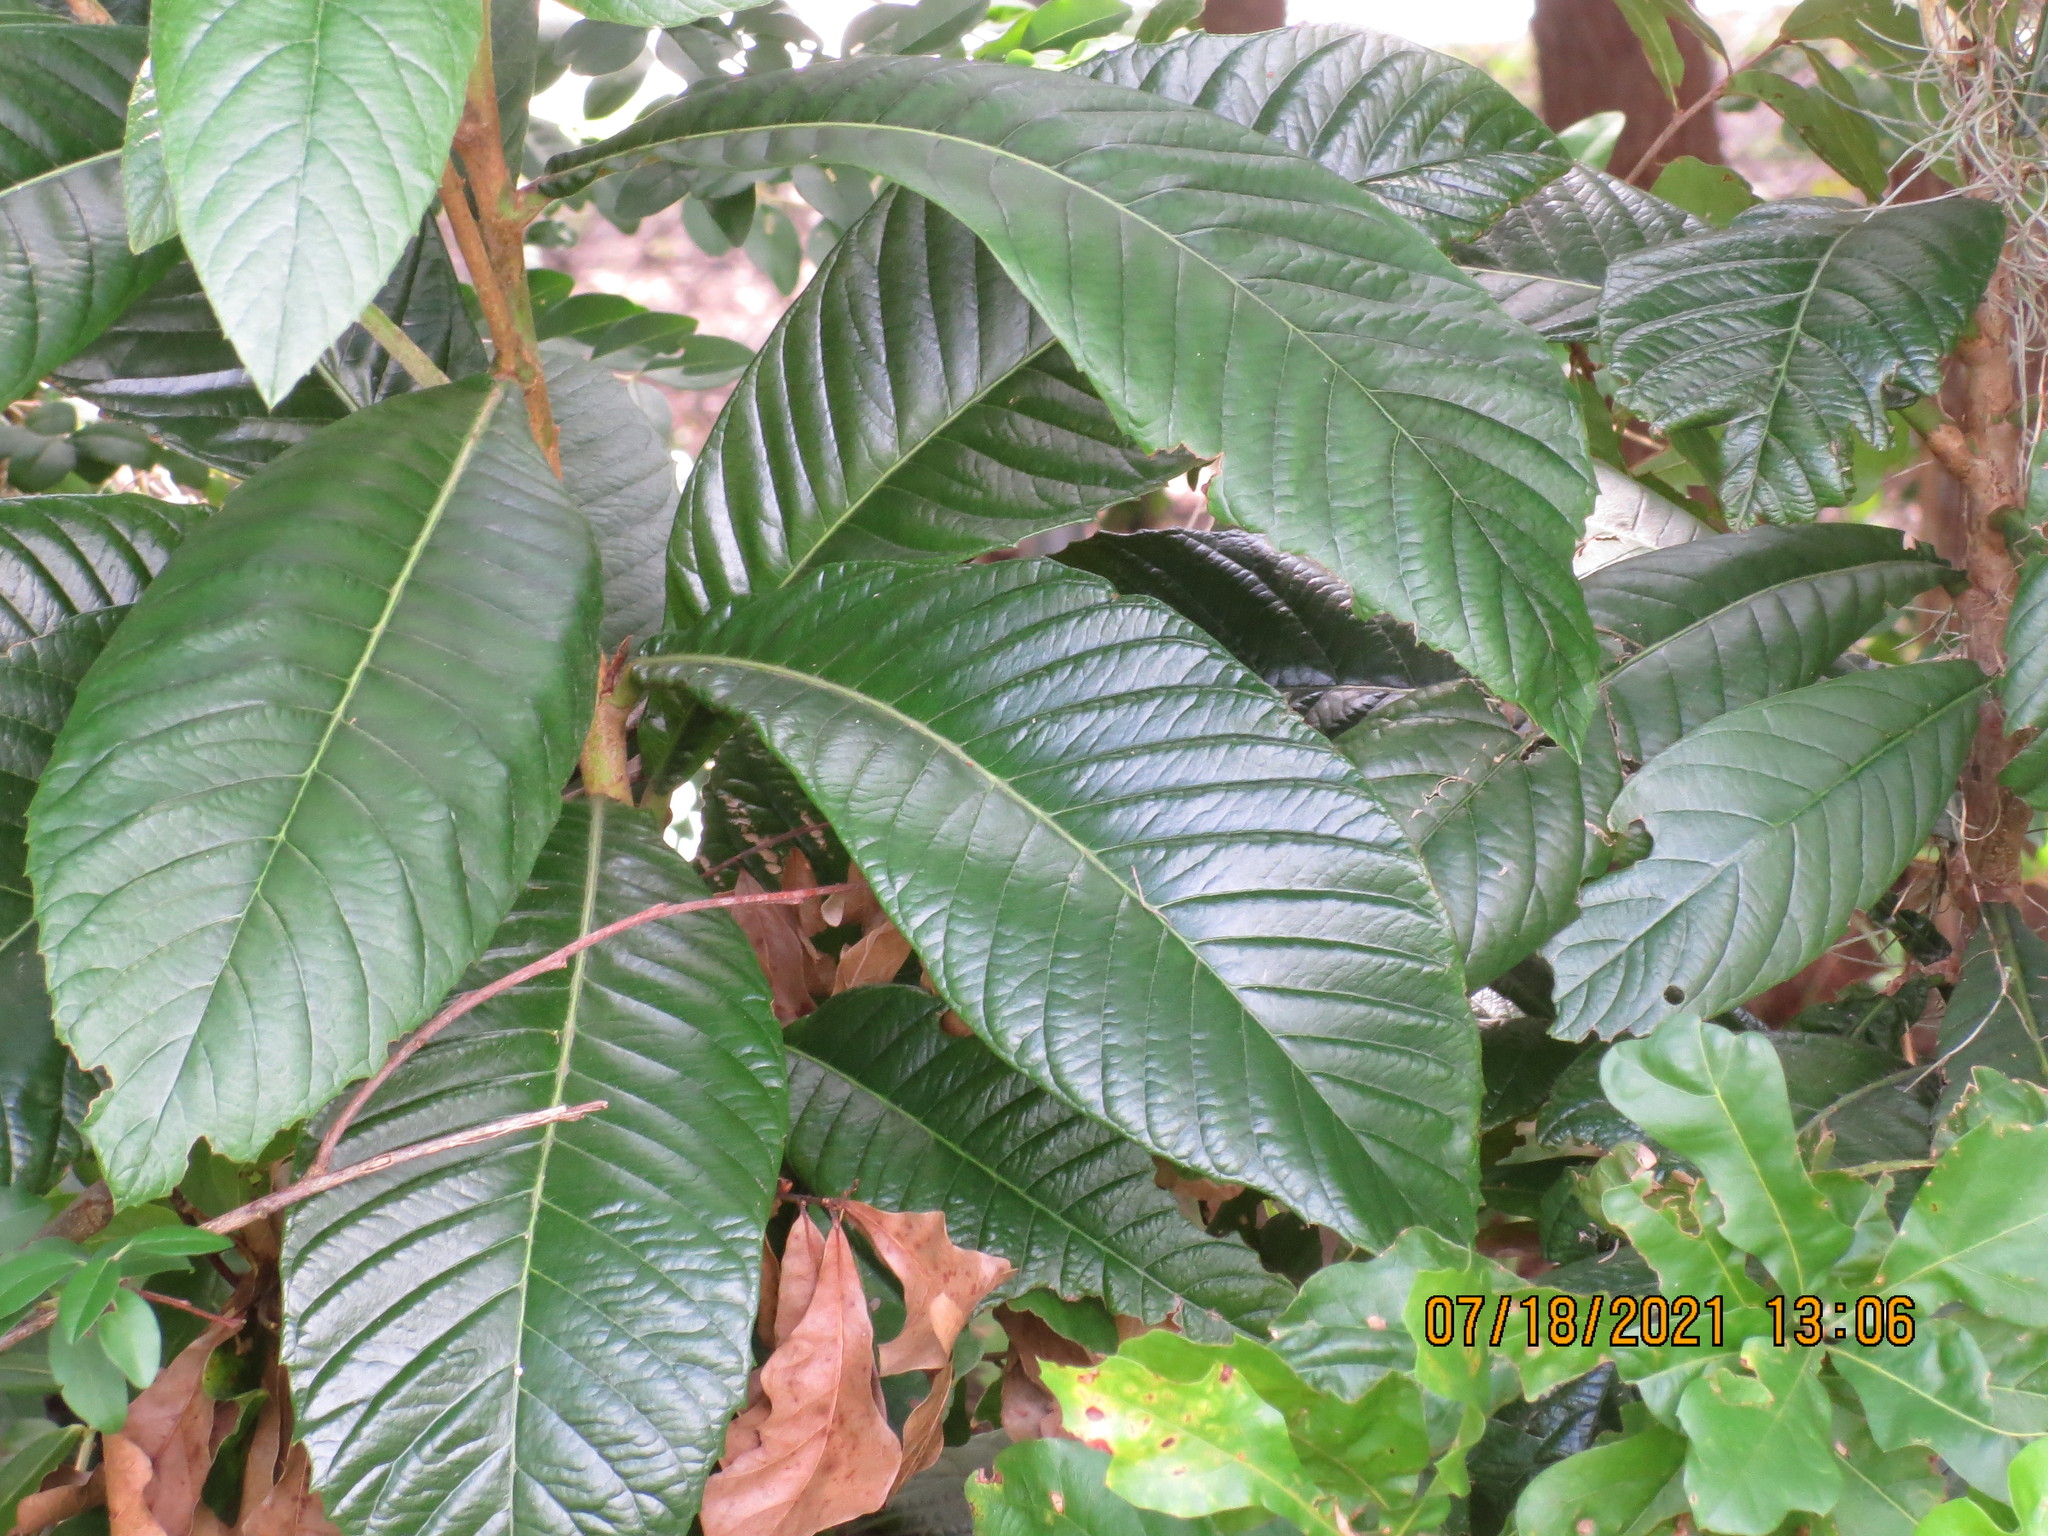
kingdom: Plantae
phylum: Tracheophyta
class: Magnoliopsida
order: Rosales
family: Rosaceae
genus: Rhaphiolepis
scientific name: Rhaphiolepis bibas
